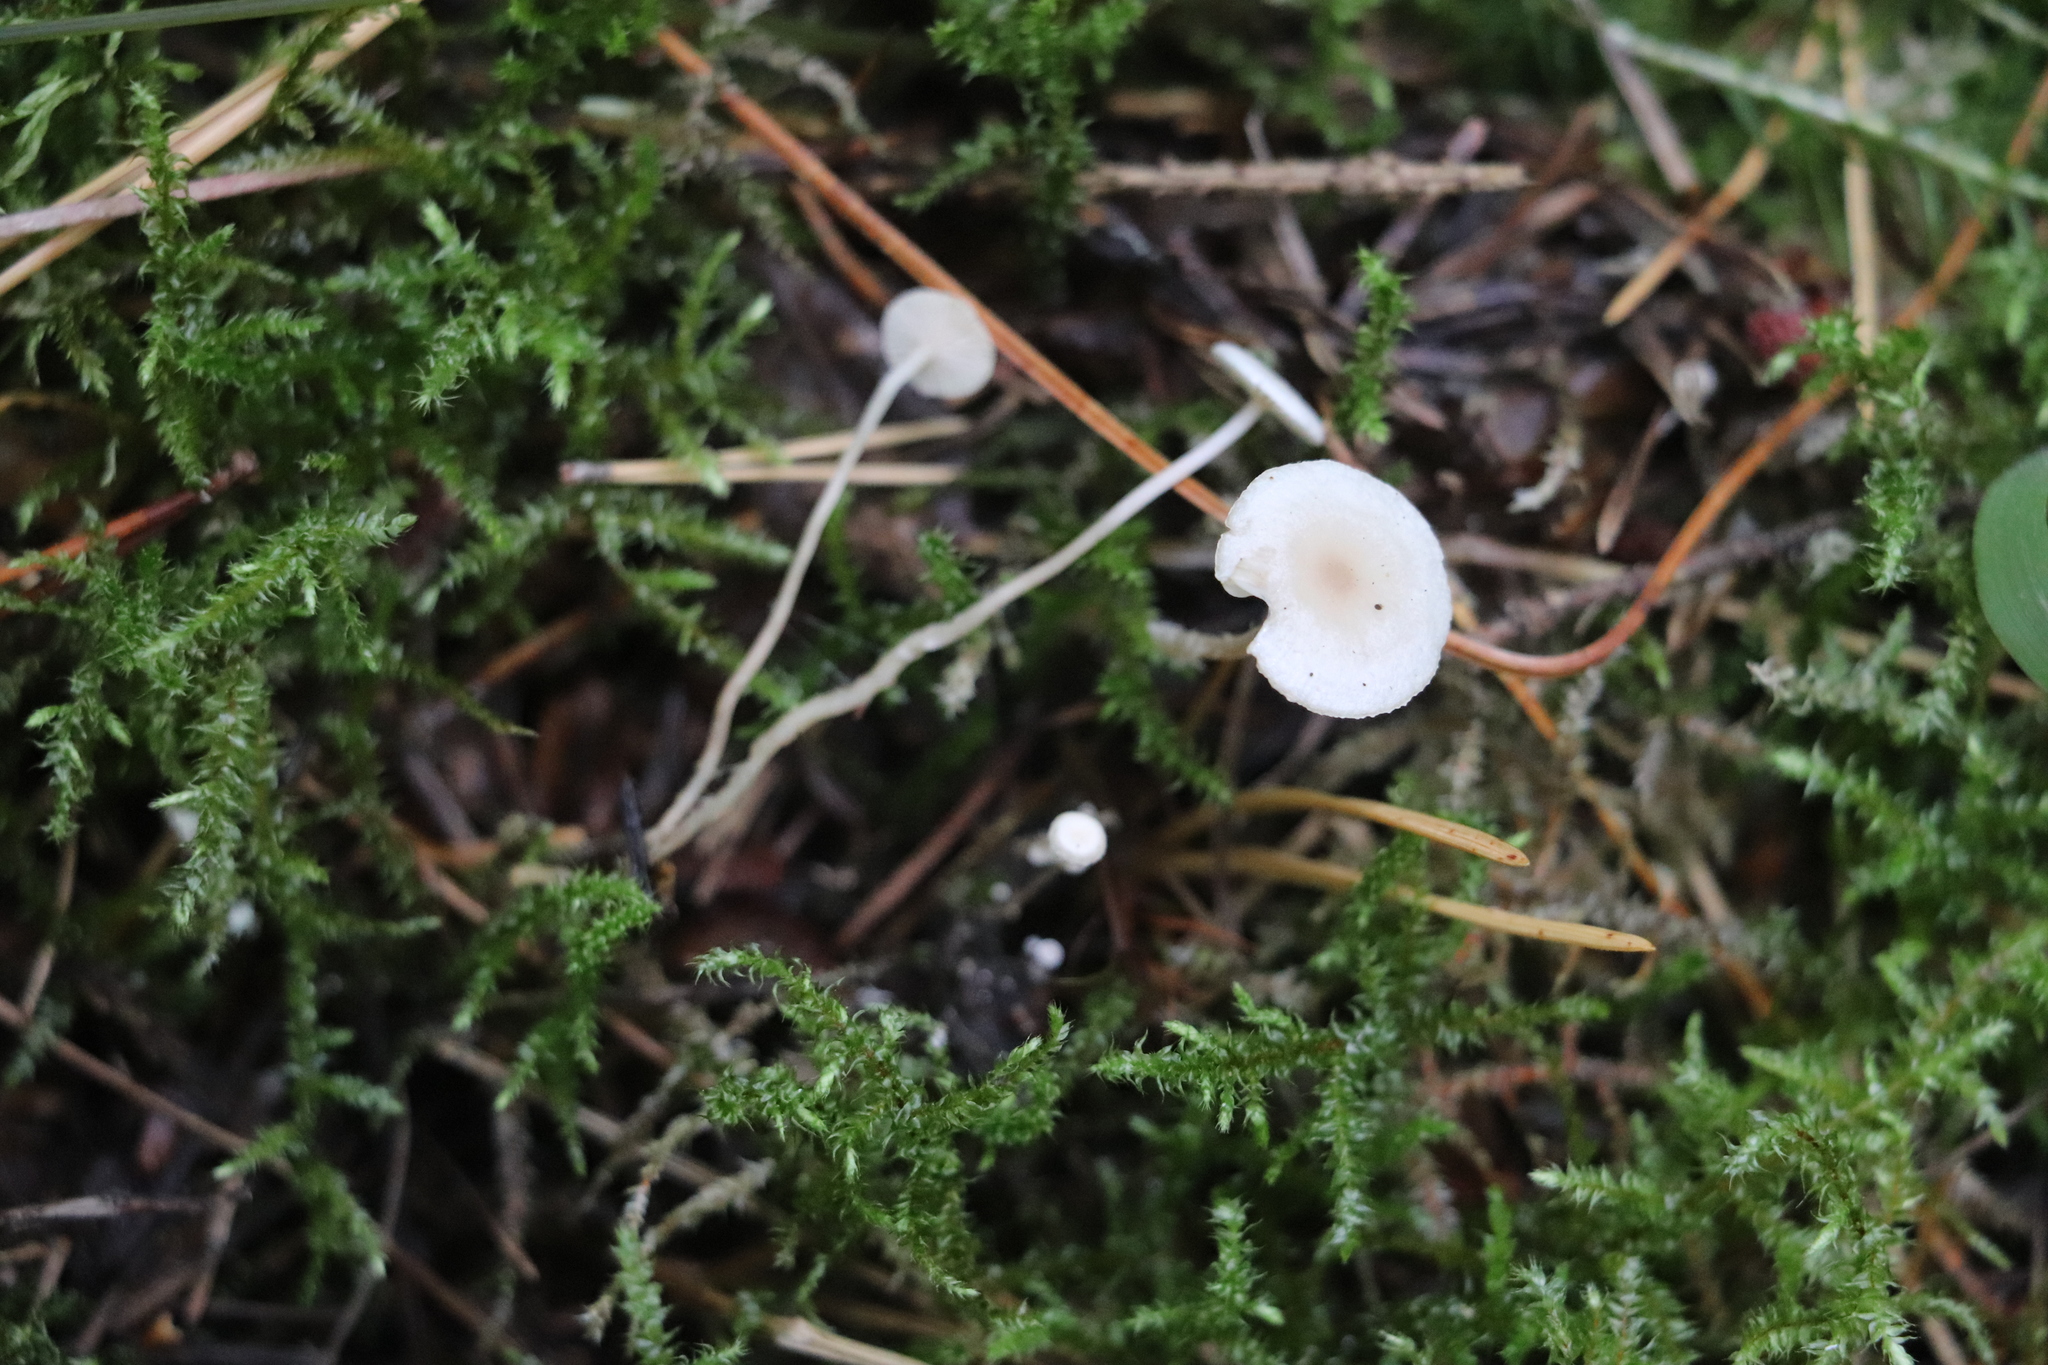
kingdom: Fungi
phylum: Basidiomycota
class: Agaricomycetes
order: Agaricales
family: Tricholomataceae
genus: Collybia
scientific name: Collybia cirrhata
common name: Piggyback shanklet
